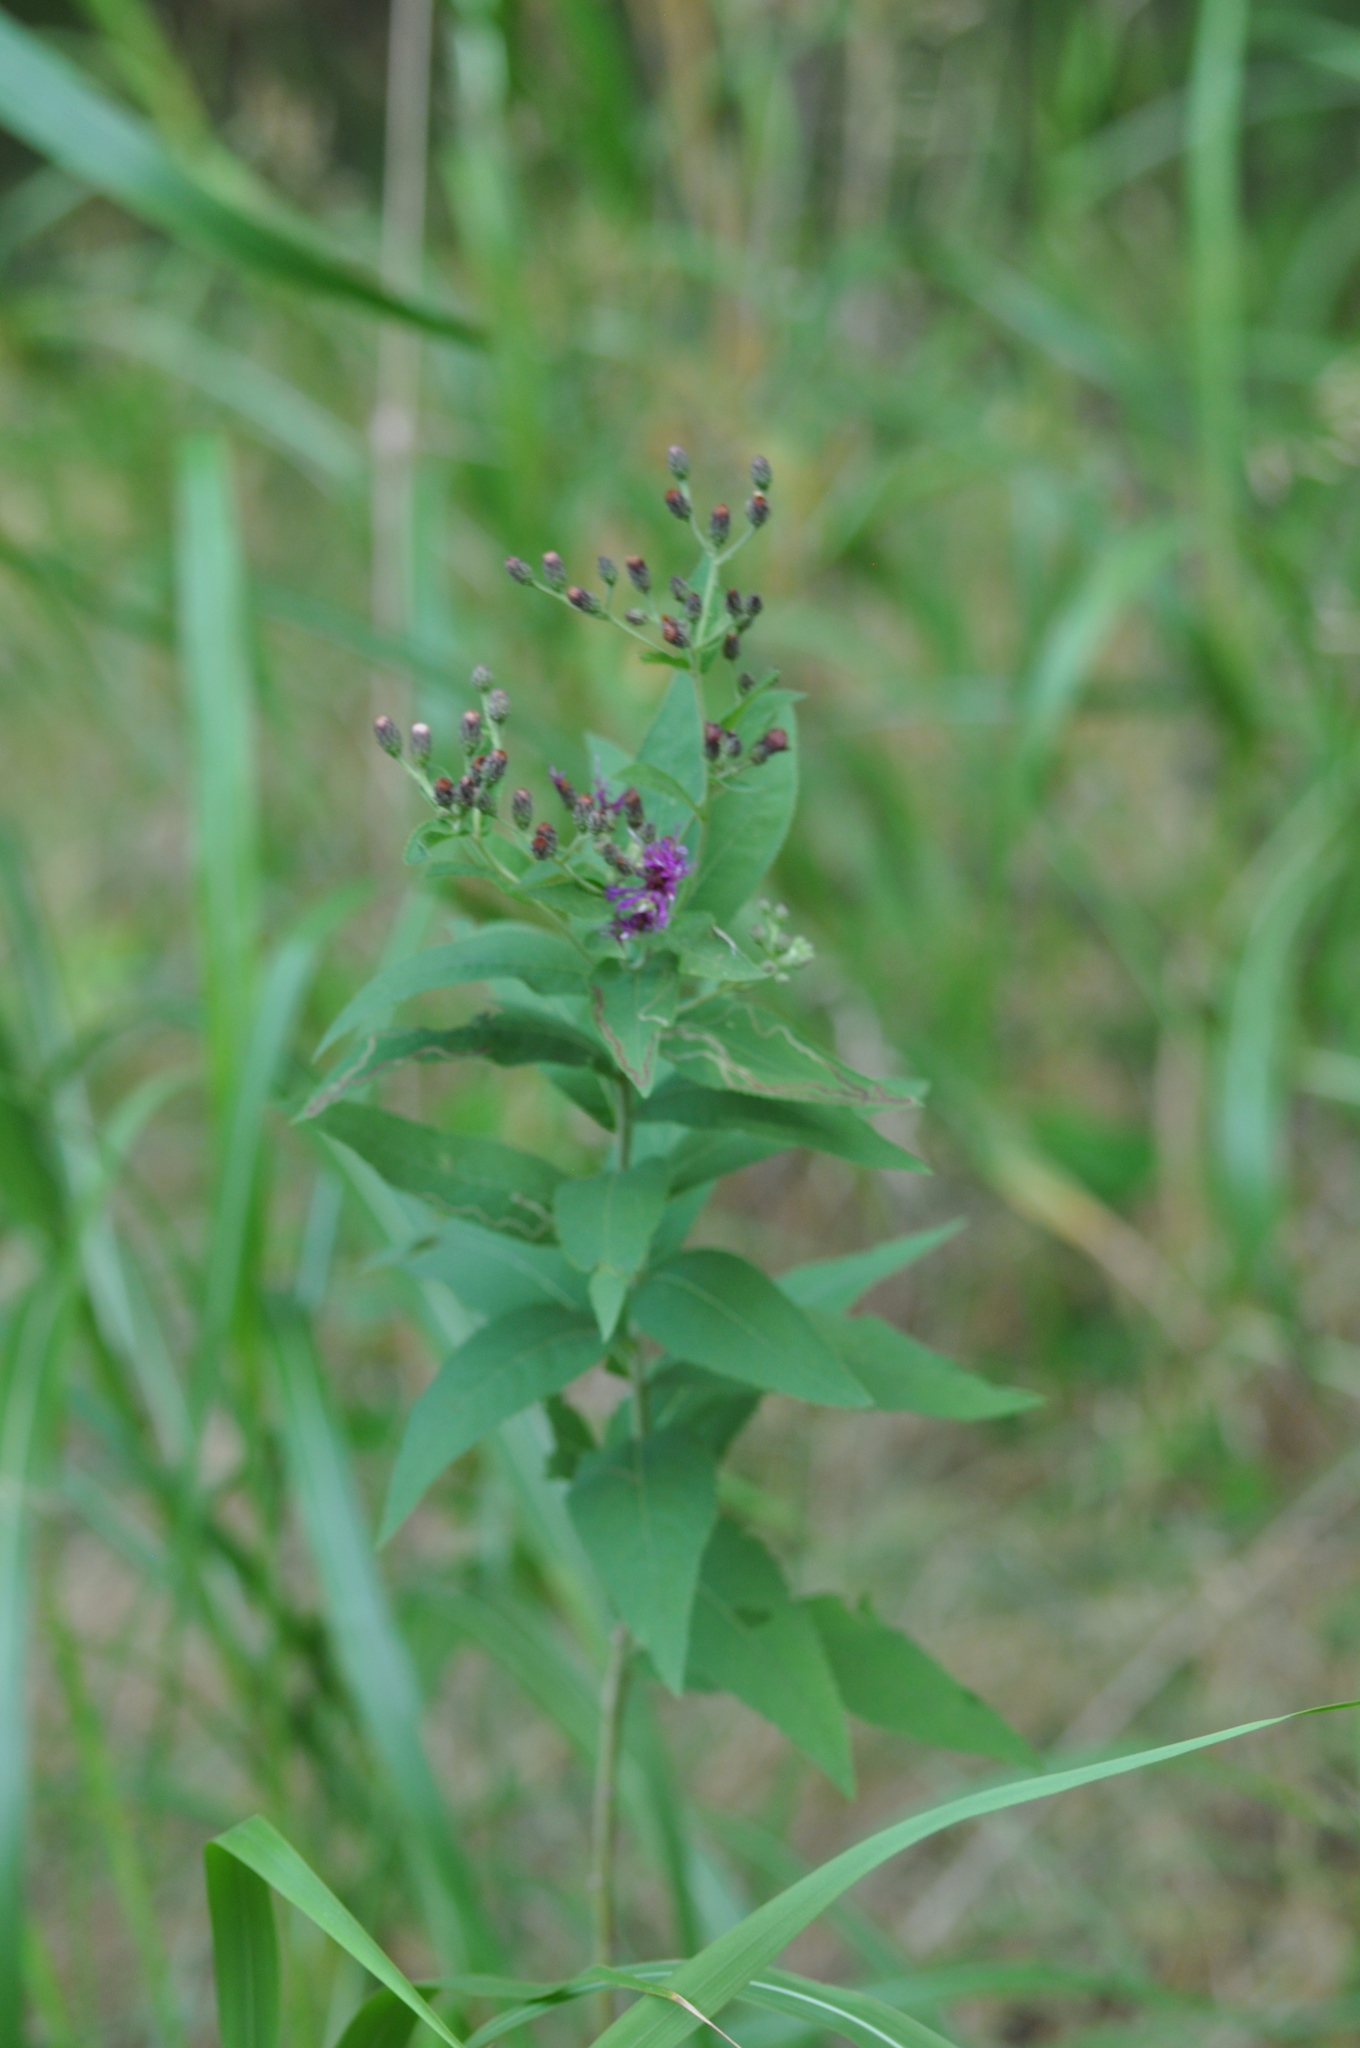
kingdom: Plantae
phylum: Tracheophyta
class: Magnoliopsida
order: Asterales
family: Asteraceae
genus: Vernonia
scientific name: Vernonia baldwinii
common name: Western ironweed
